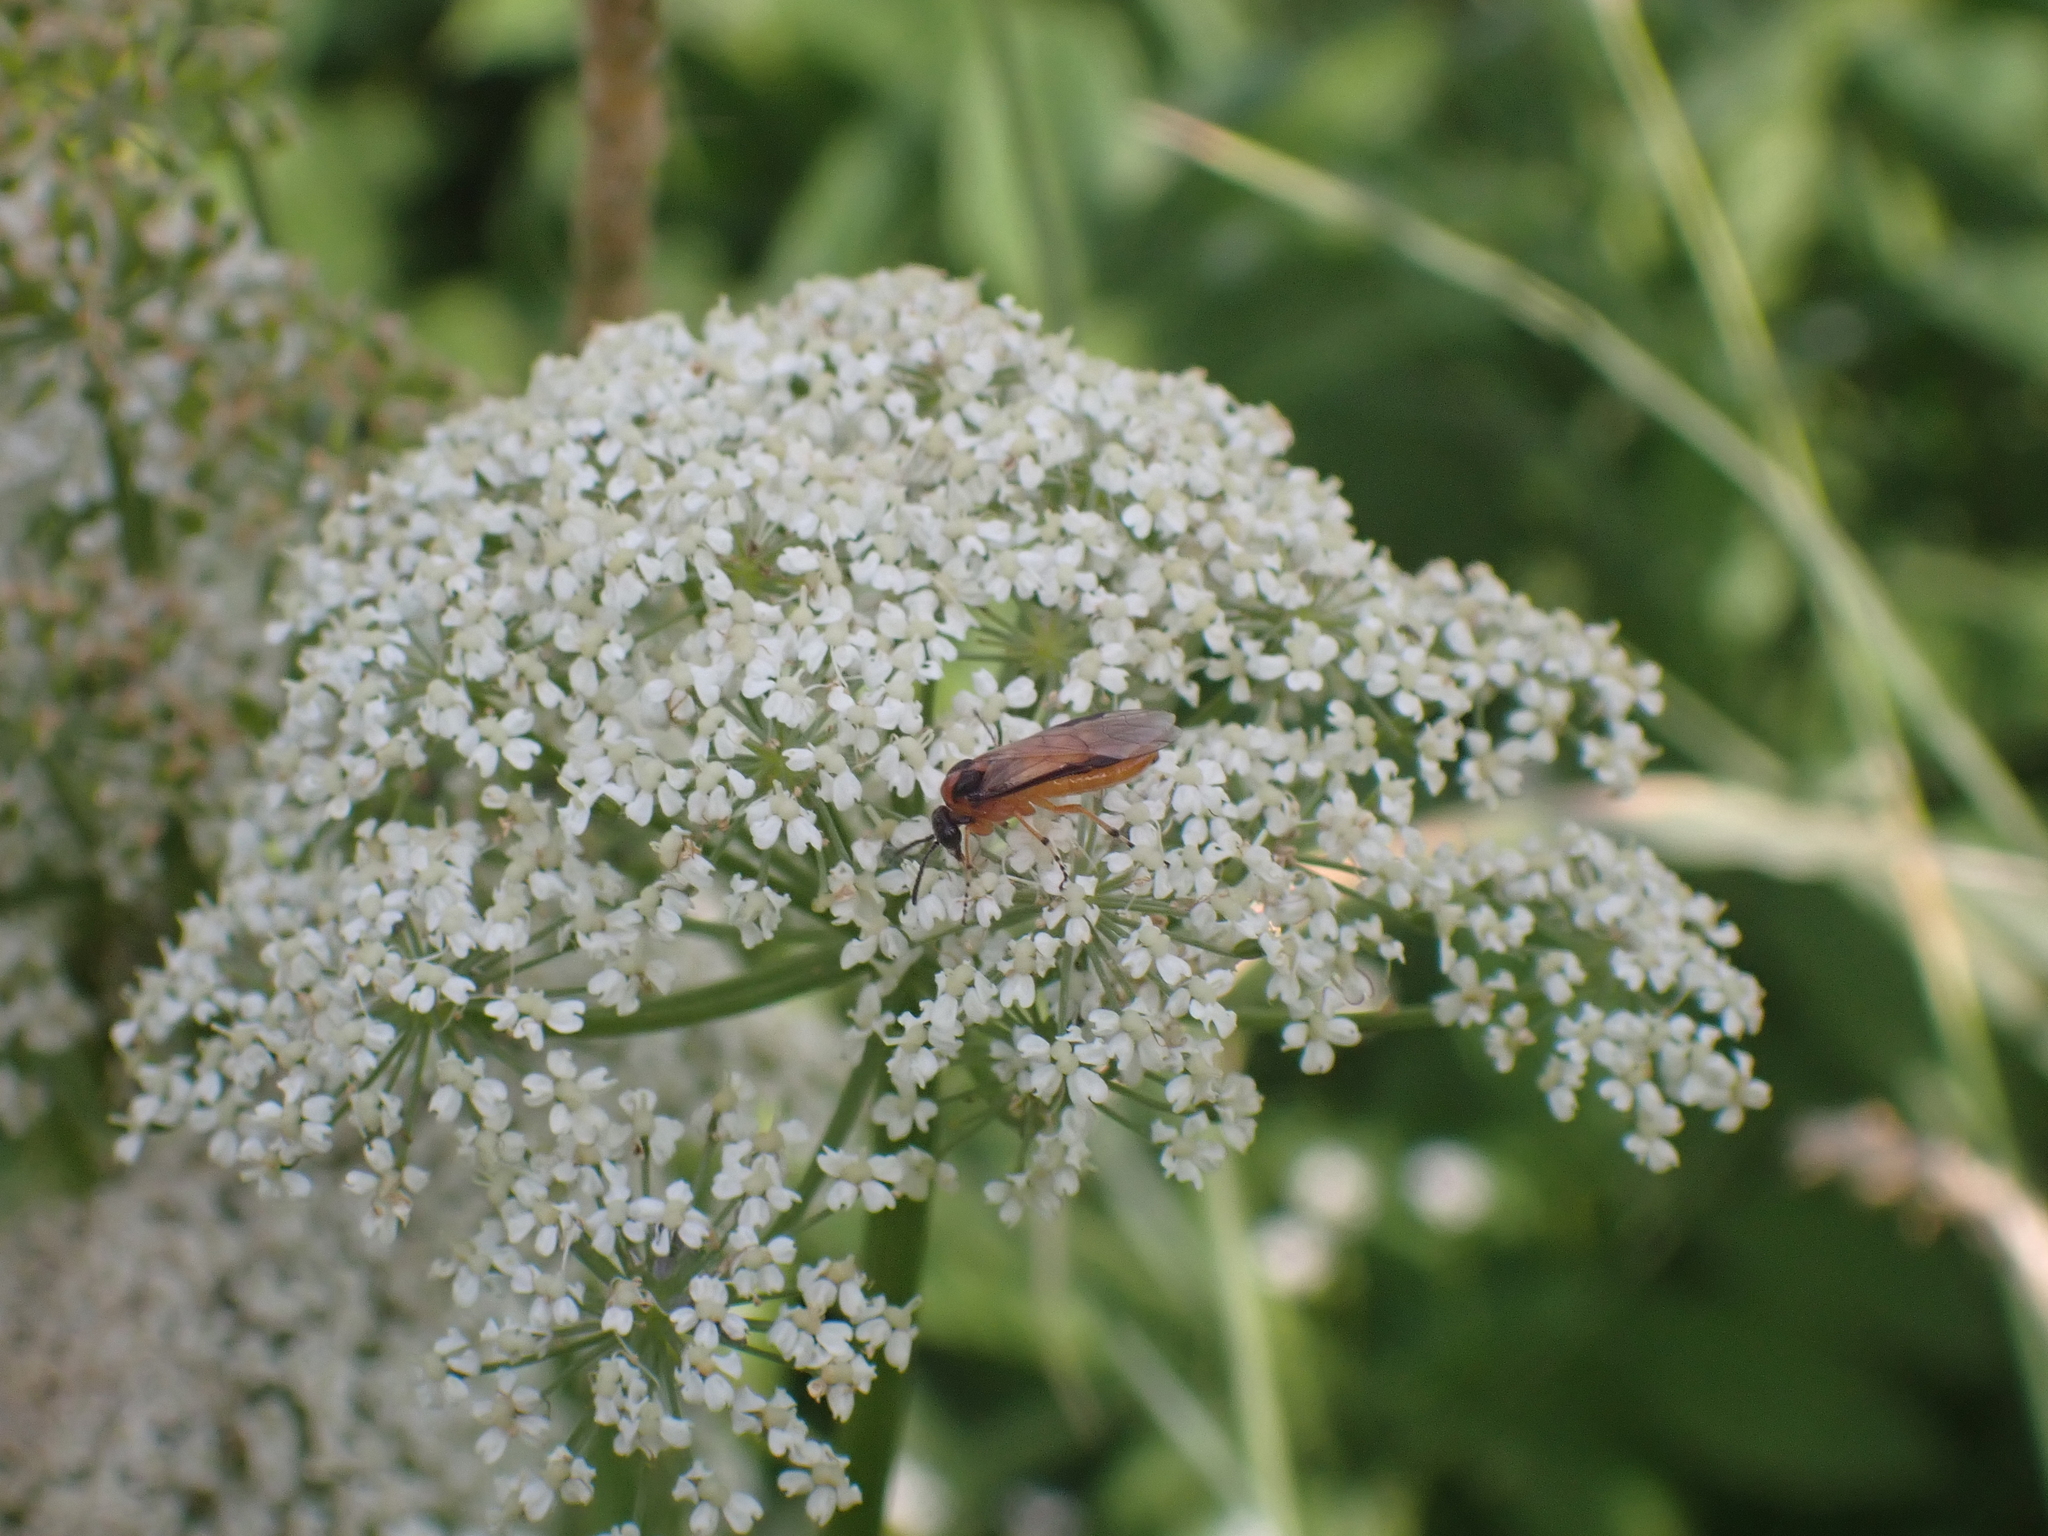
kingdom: Animalia
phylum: Arthropoda
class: Insecta
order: Hymenoptera
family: Tenthredinidae
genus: Athalia
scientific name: Athalia rosae
